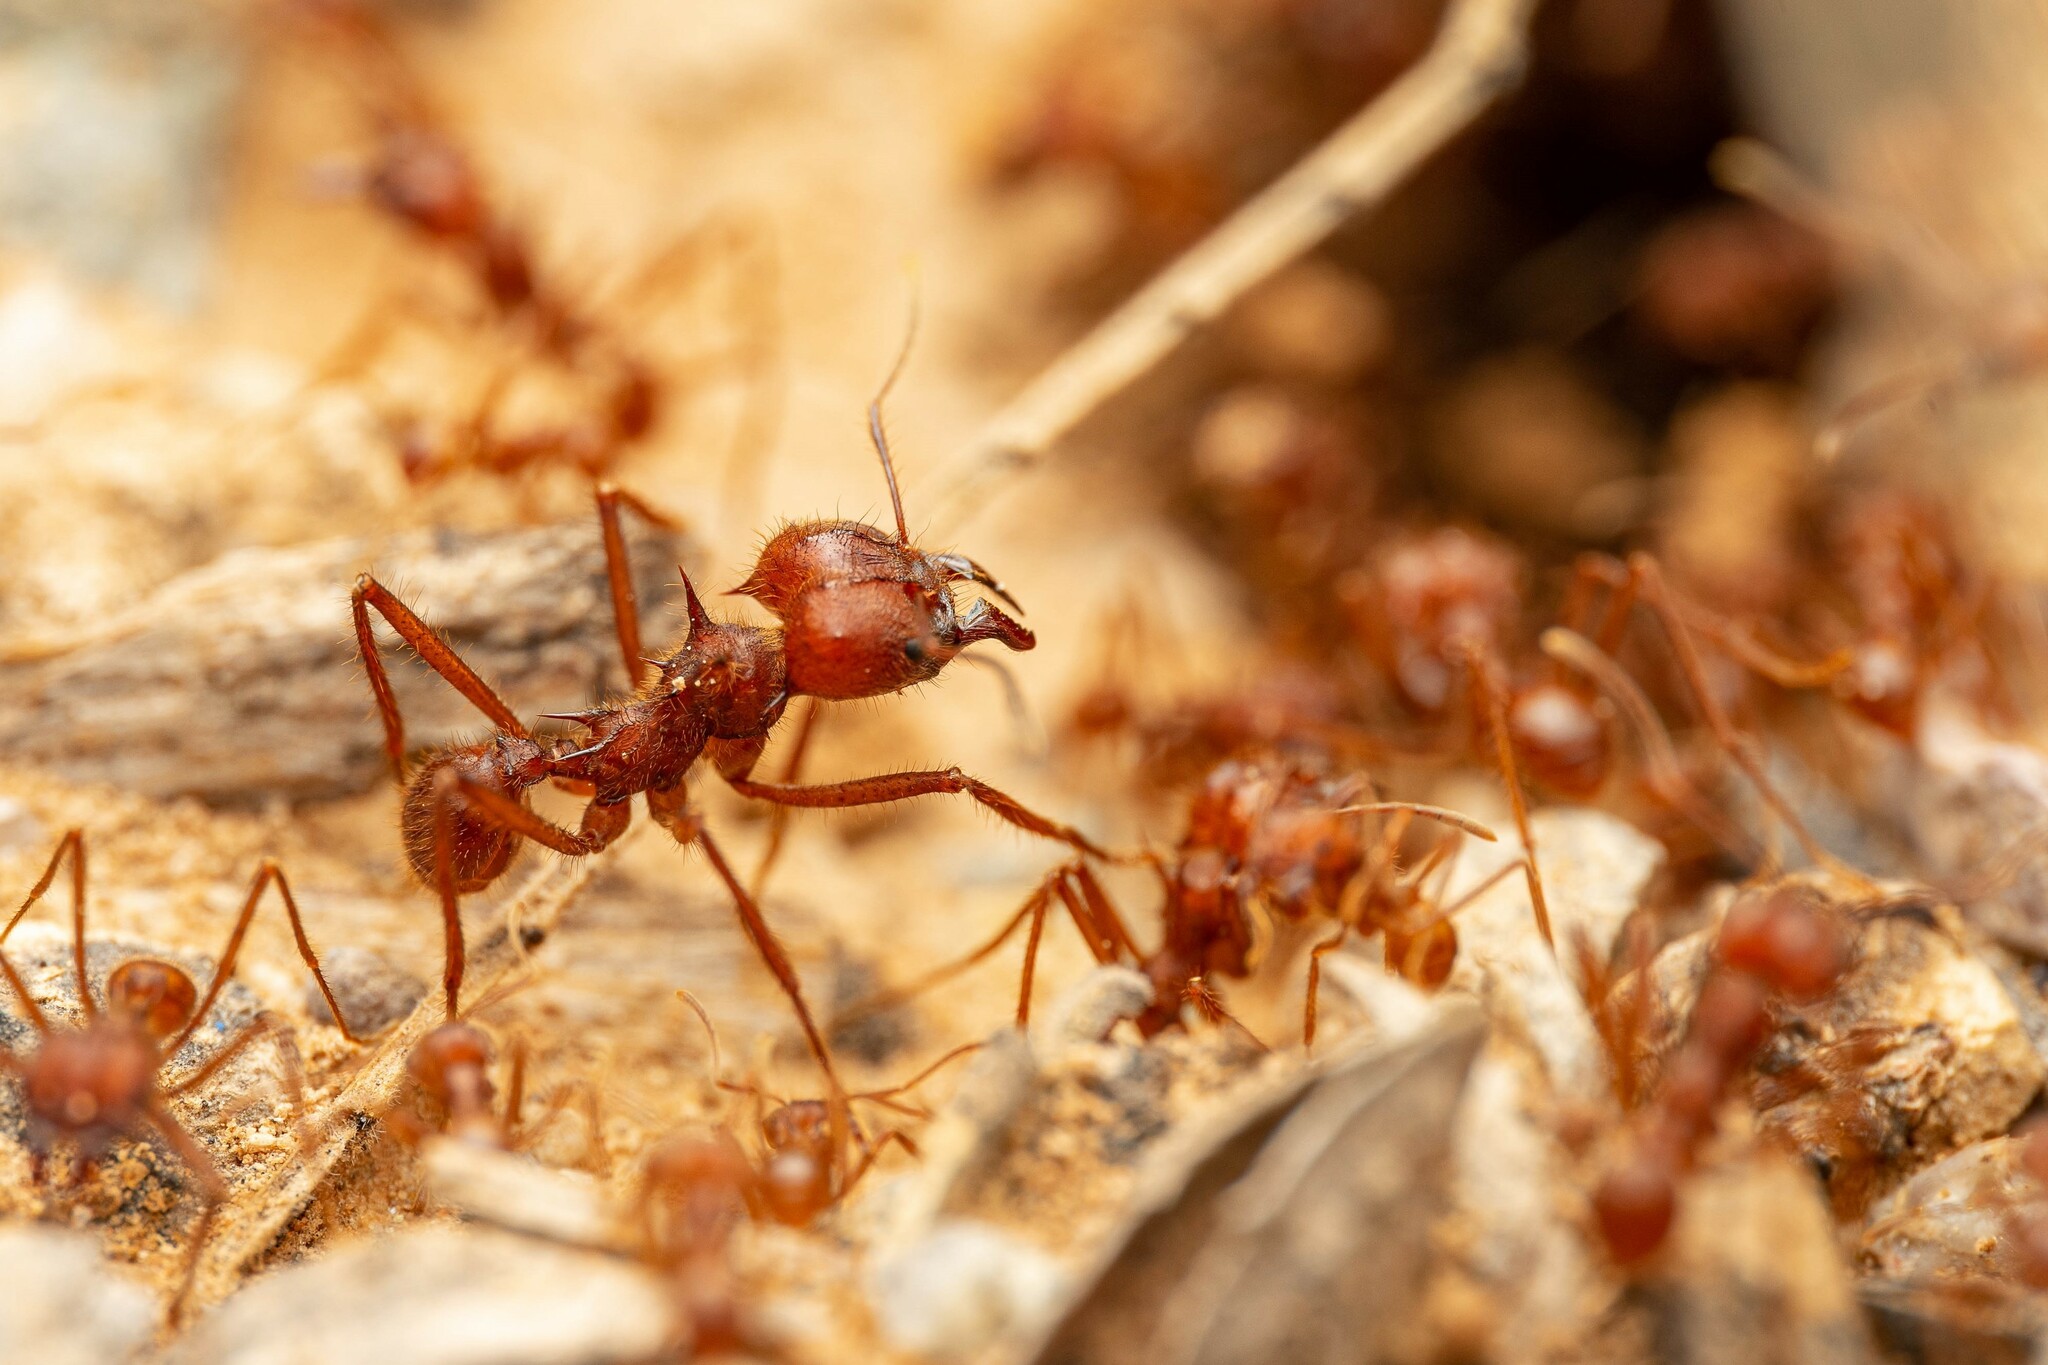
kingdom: Animalia
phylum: Arthropoda
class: Insecta
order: Hymenoptera
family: Formicidae
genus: Atta
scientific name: Atta mexicana
